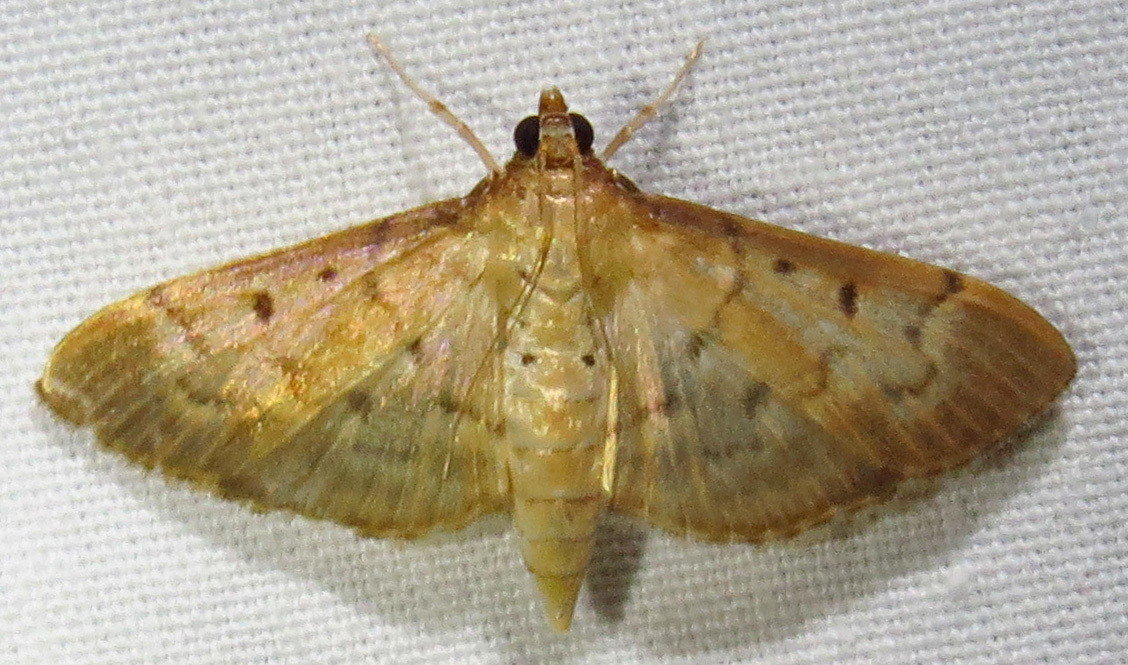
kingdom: Animalia
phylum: Arthropoda
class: Insecta
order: Lepidoptera
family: Crambidae
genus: Herpetogramma
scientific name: Herpetogramma bipunctalis
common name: Southern beet webworm
